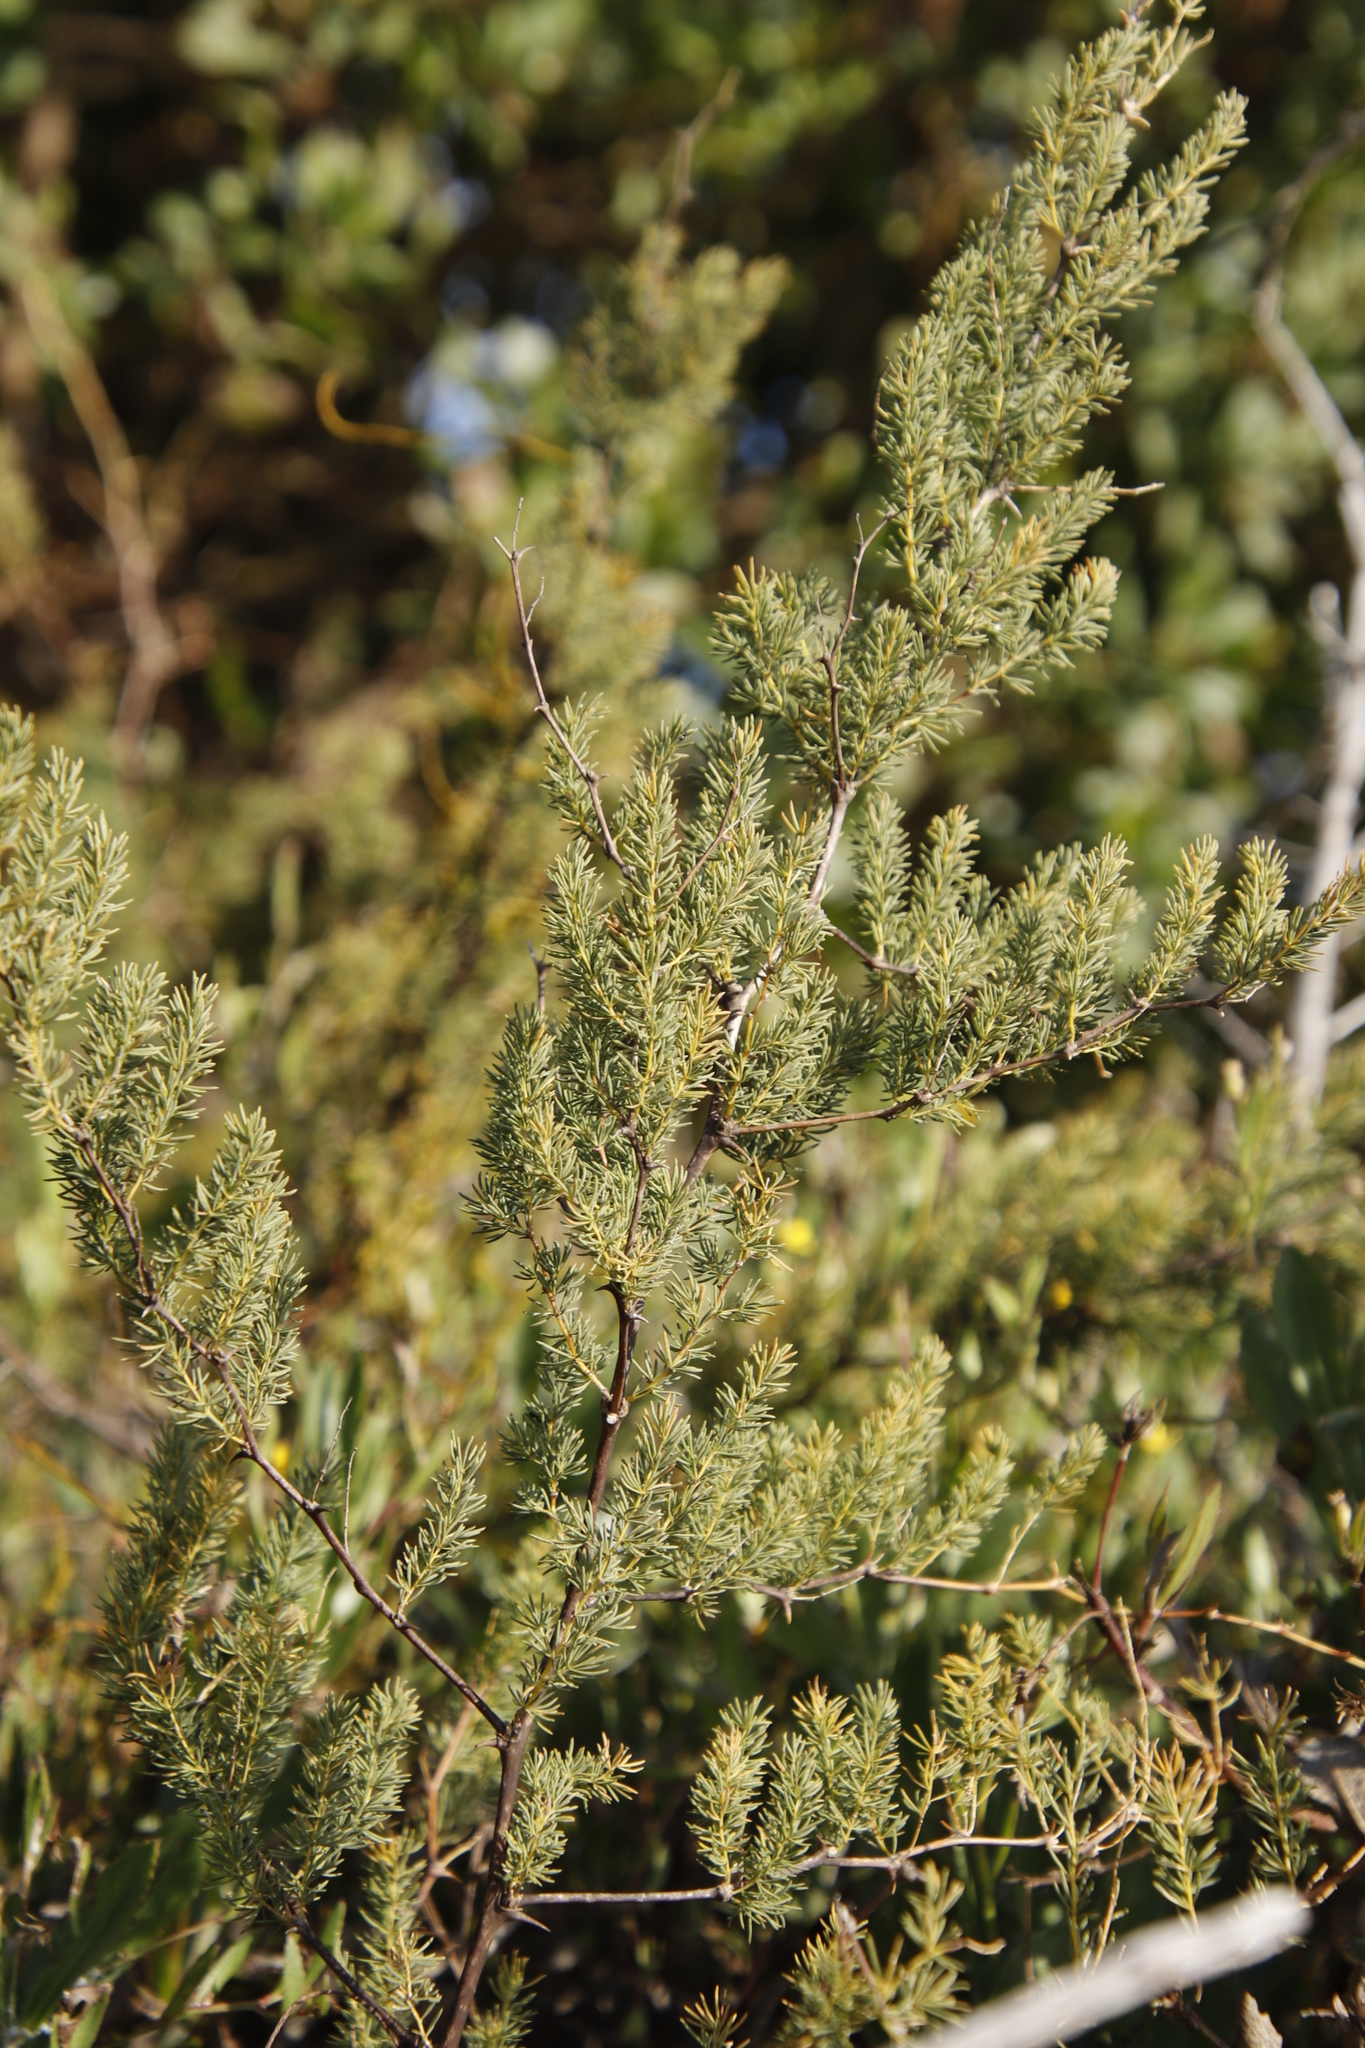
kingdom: Plantae
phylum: Tracheophyta
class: Liliopsida
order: Asparagales
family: Asparagaceae
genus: Asparagus
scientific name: Asparagus rubicundus
